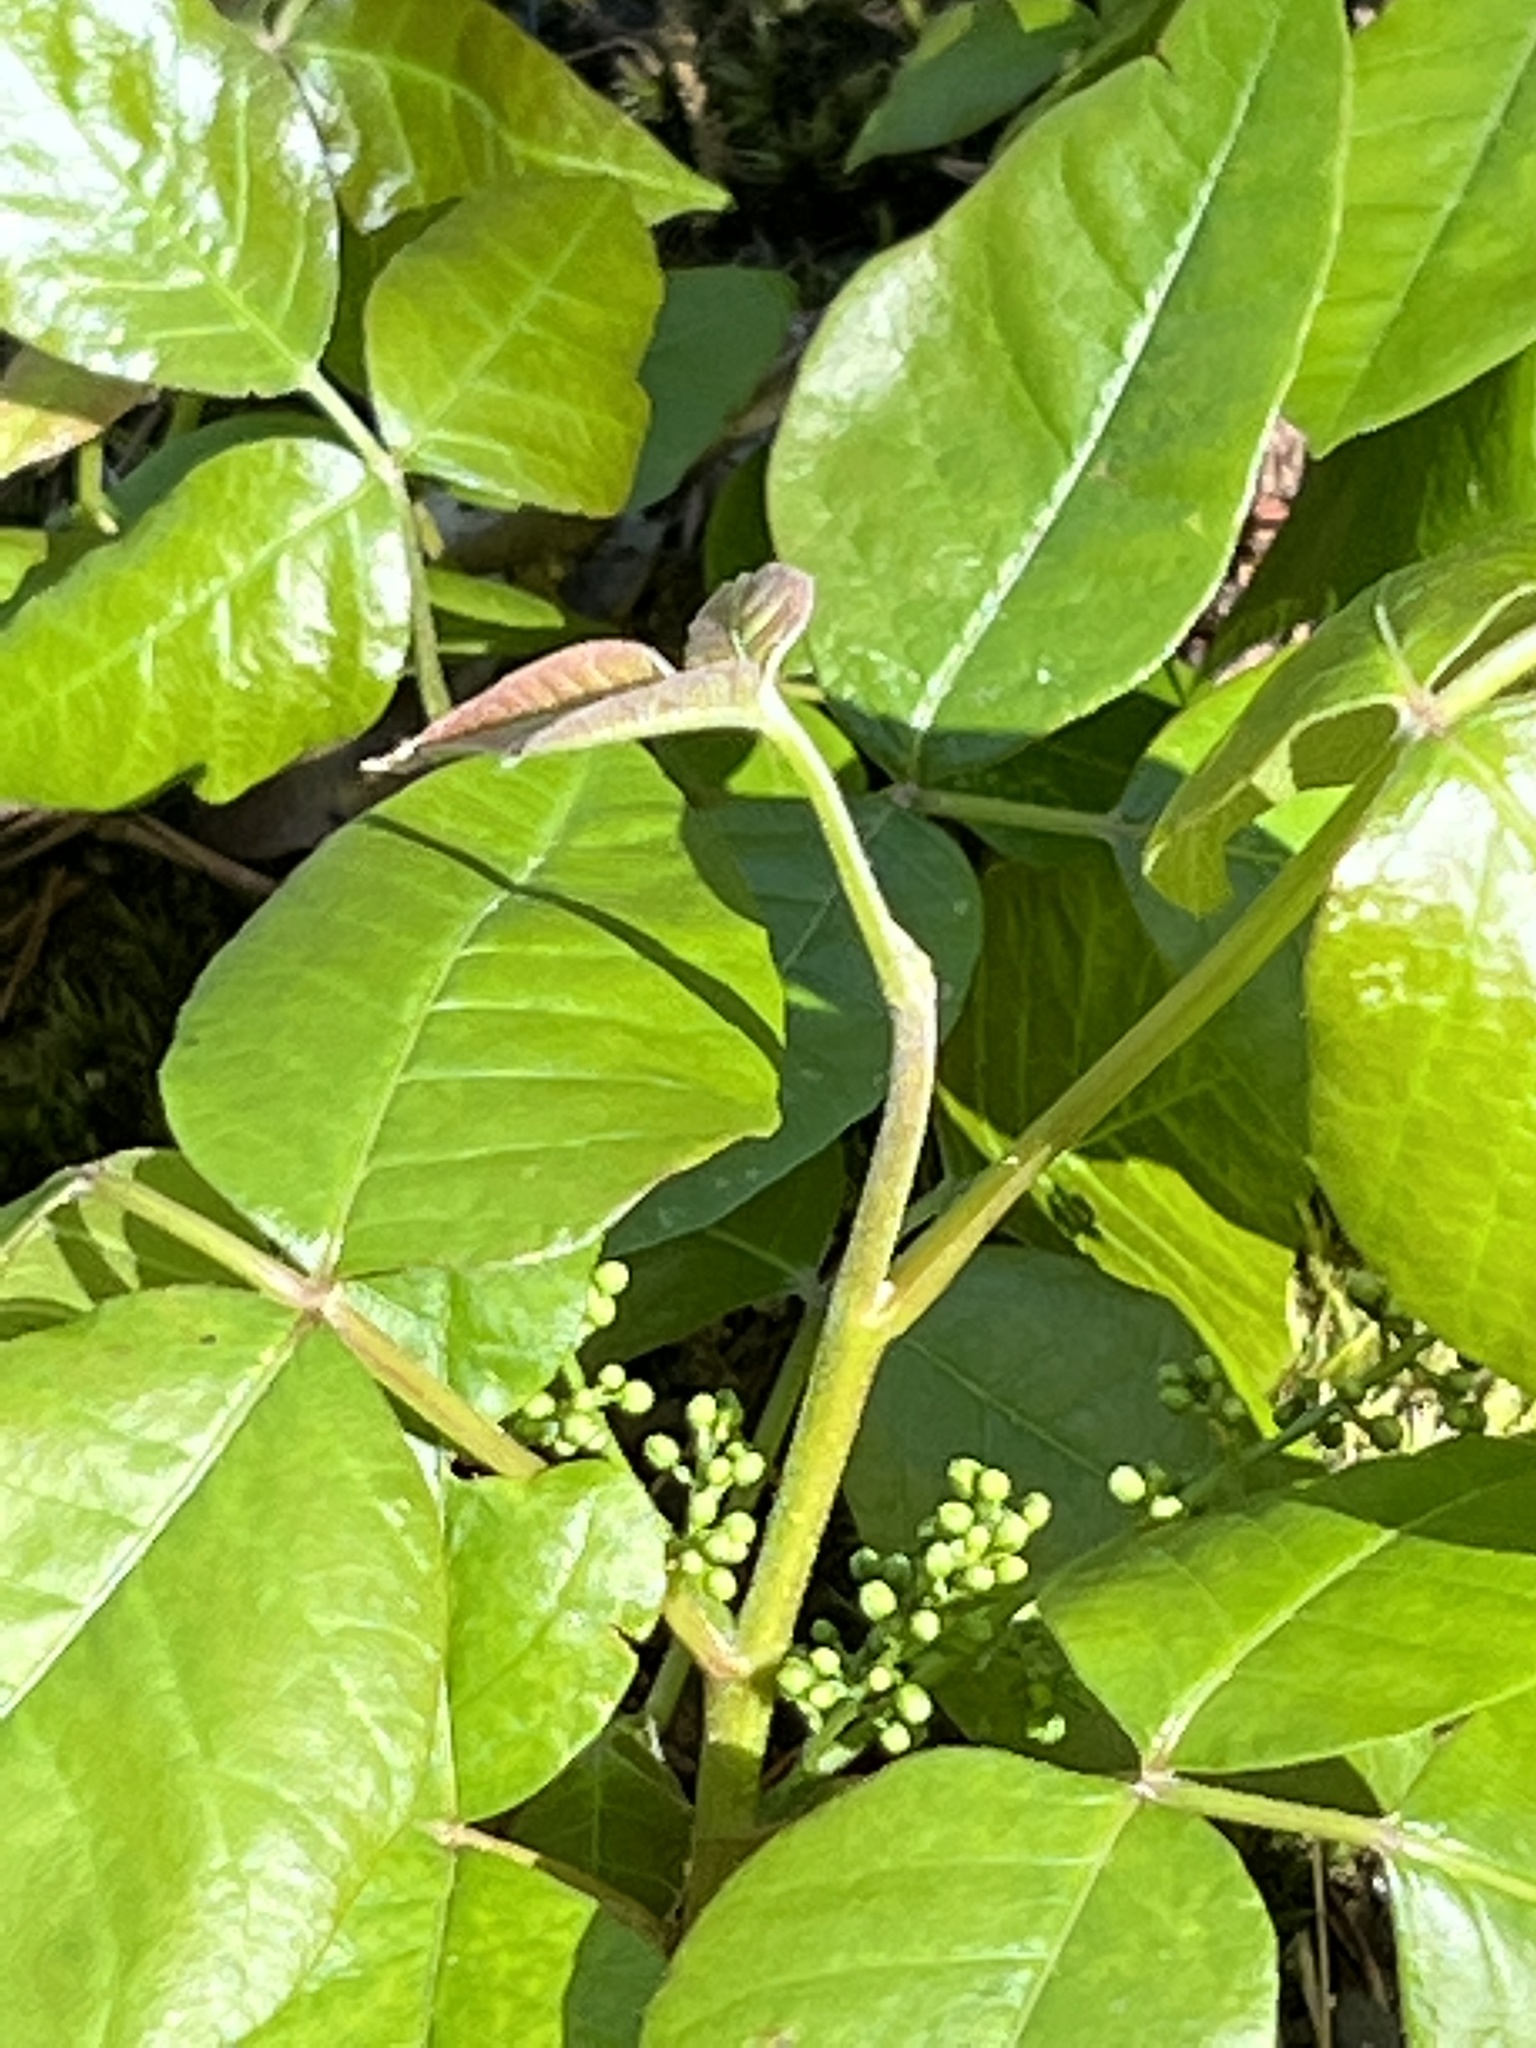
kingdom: Plantae
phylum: Tracheophyta
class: Magnoliopsida
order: Sapindales
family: Anacardiaceae
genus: Toxicodendron
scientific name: Toxicodendron radicans
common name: Poison ivy
